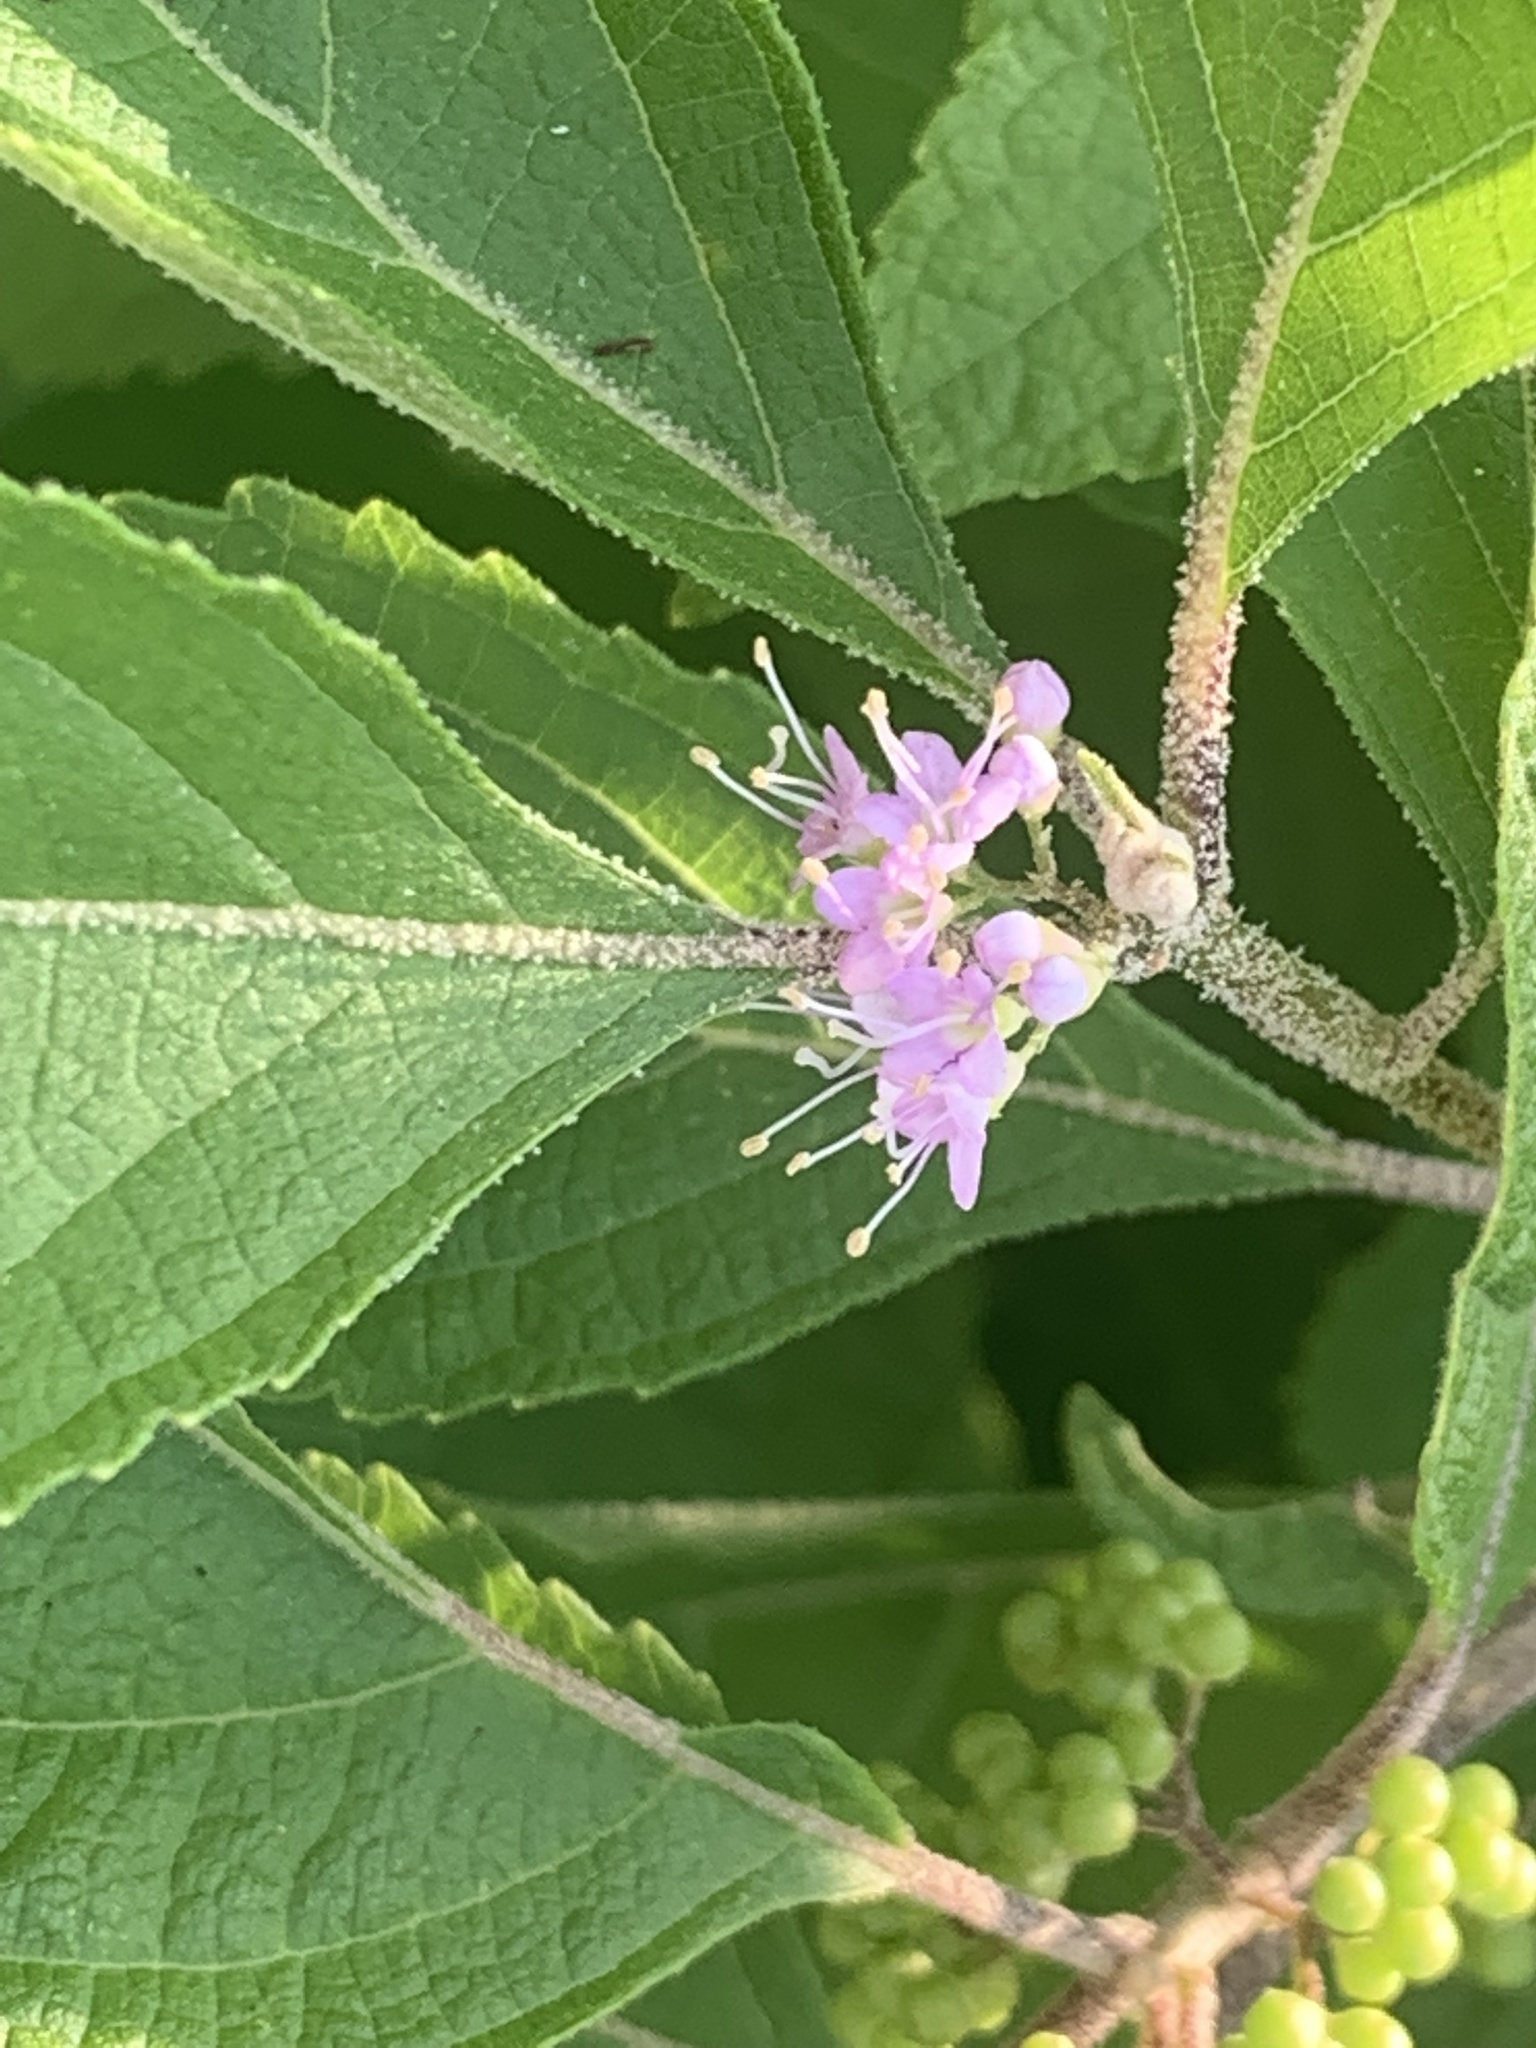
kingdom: Plantae
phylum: Tracheophyta
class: Magnoliopsida
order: Lamiales
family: Lamiaceae
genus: Callicarpa
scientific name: Callicarpa americana
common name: American beautyberry
